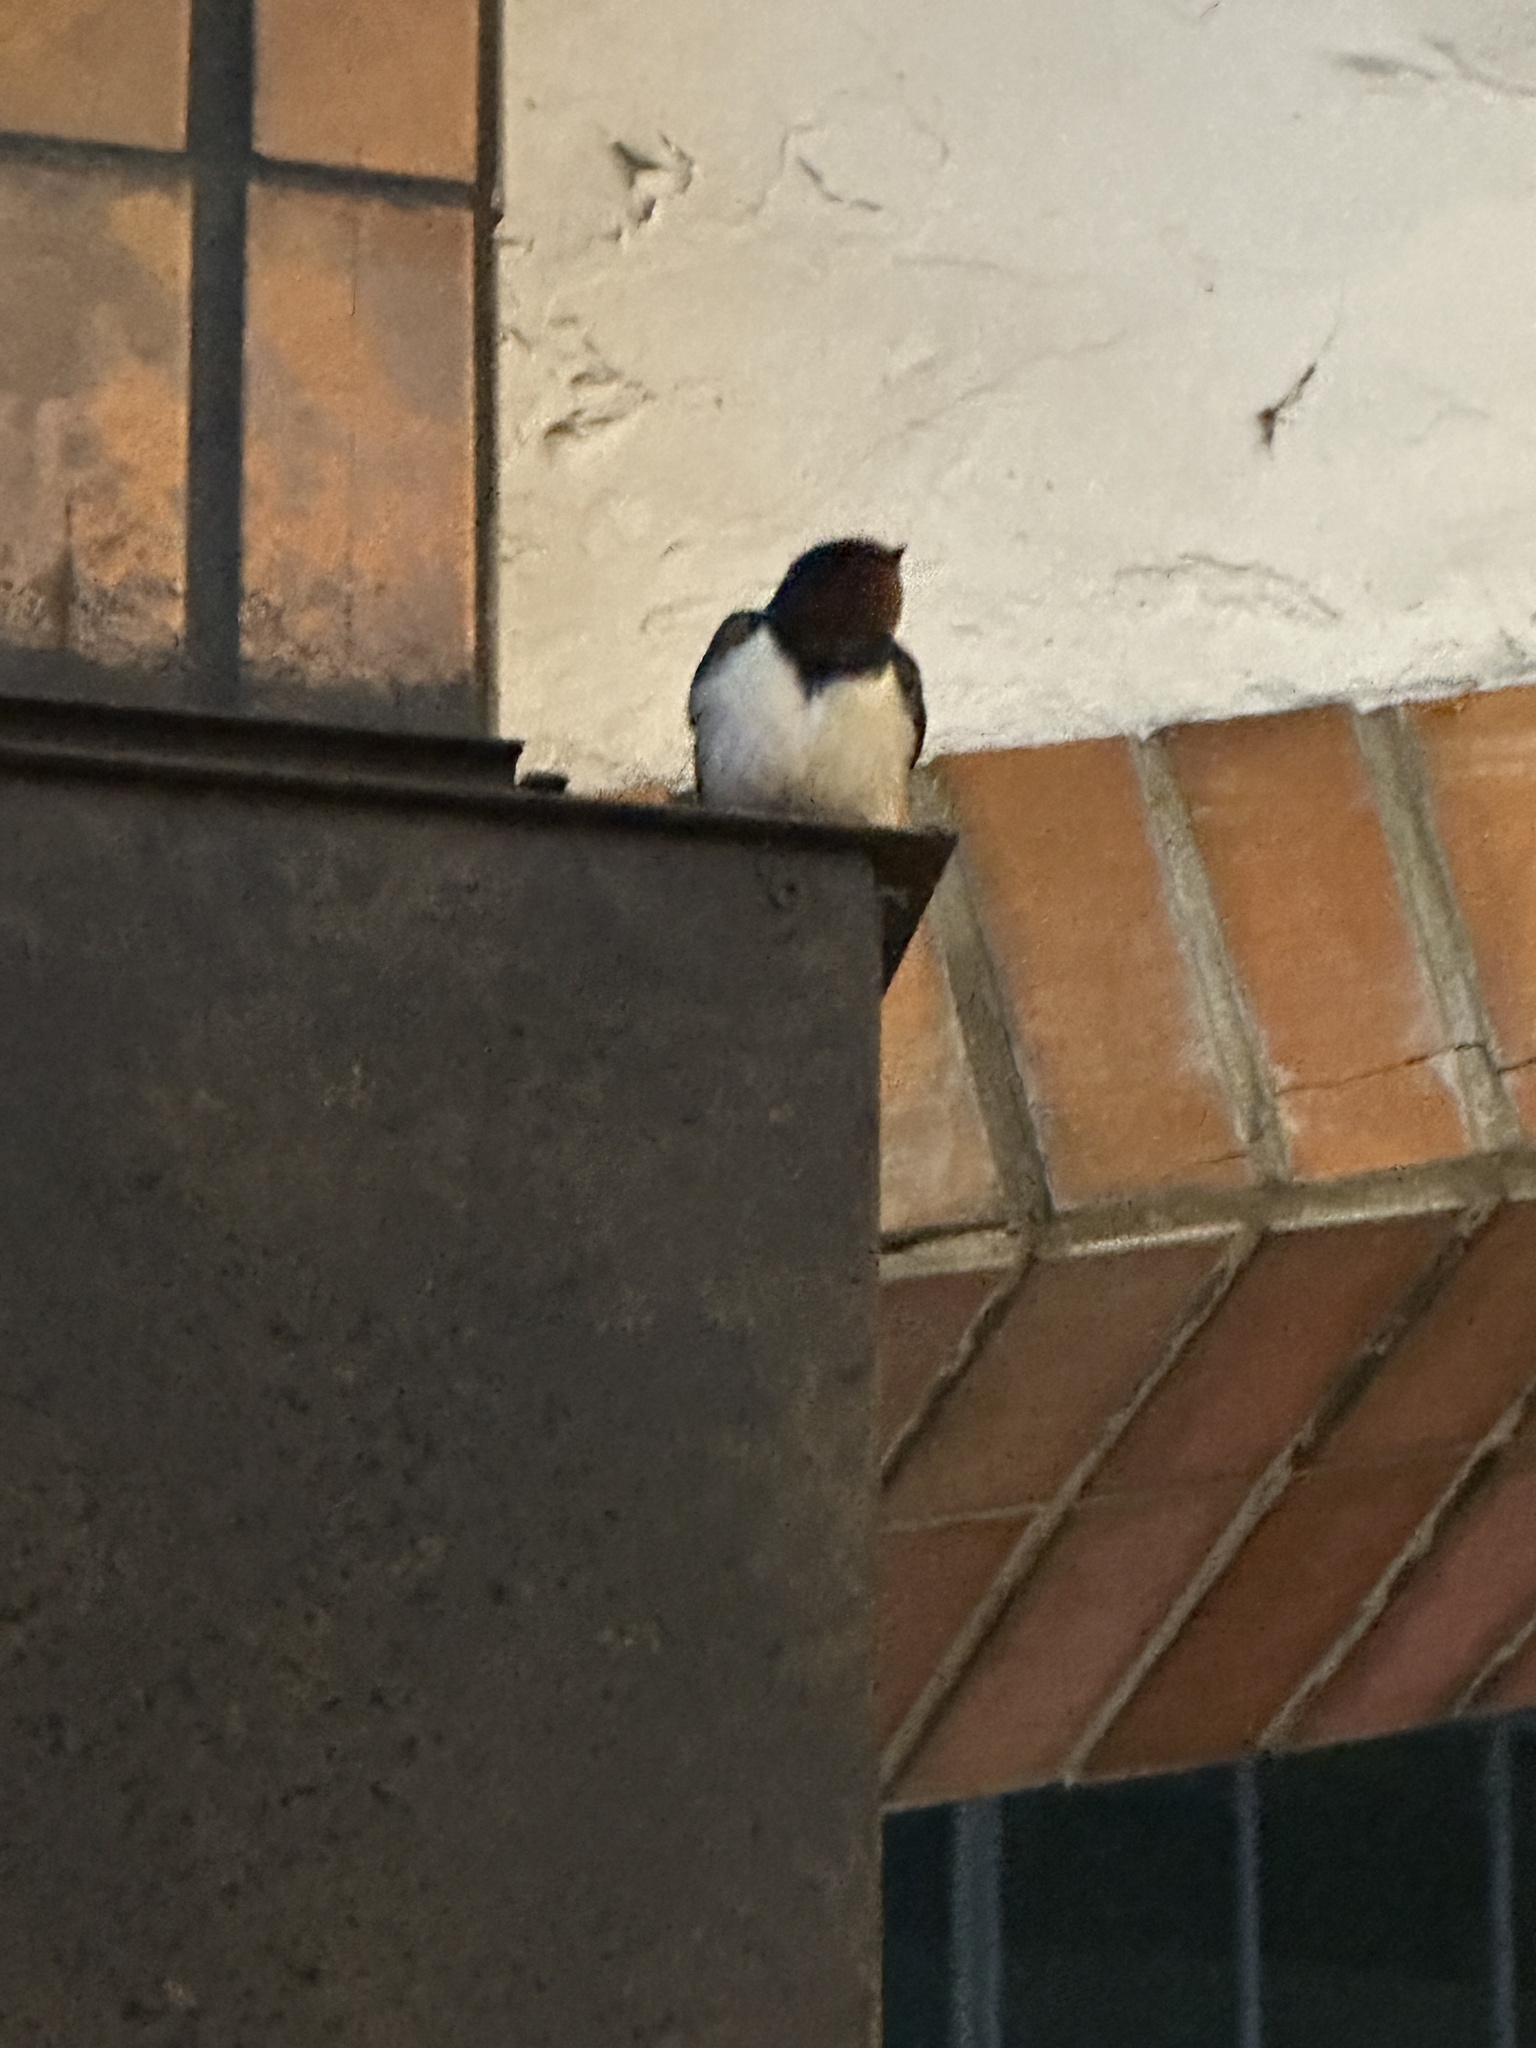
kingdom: Animalia
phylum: Chordata
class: Aves
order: Passeriformes
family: Hirundinidae
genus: Hirundo
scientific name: Hirundo rustica
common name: Barn swallow
